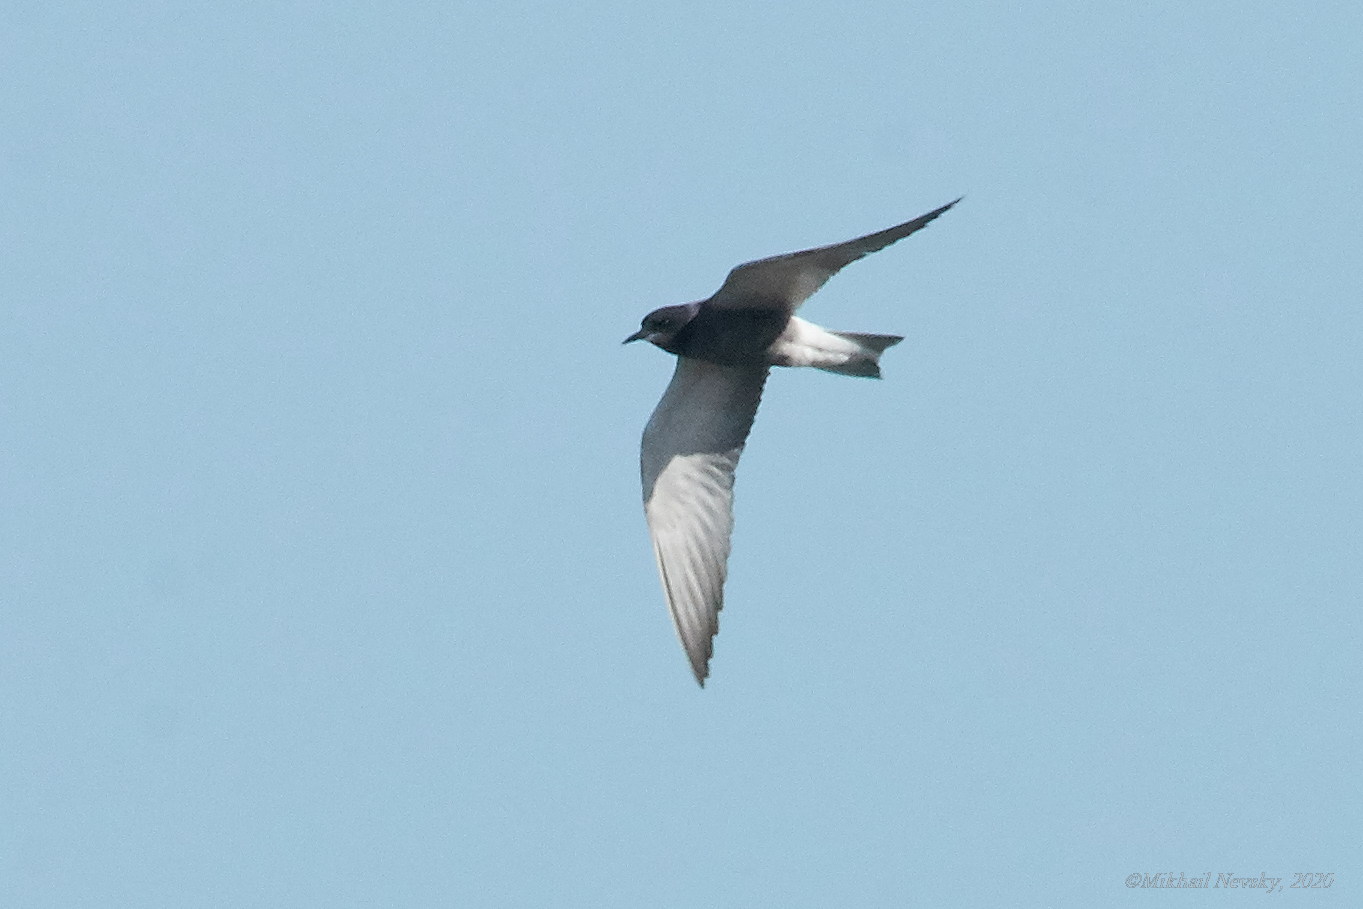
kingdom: Animalia
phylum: Chordata
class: Aves
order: Charadriiformes
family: Laridae
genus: Chlidonias
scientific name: Chlidonias niger
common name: Black tern
